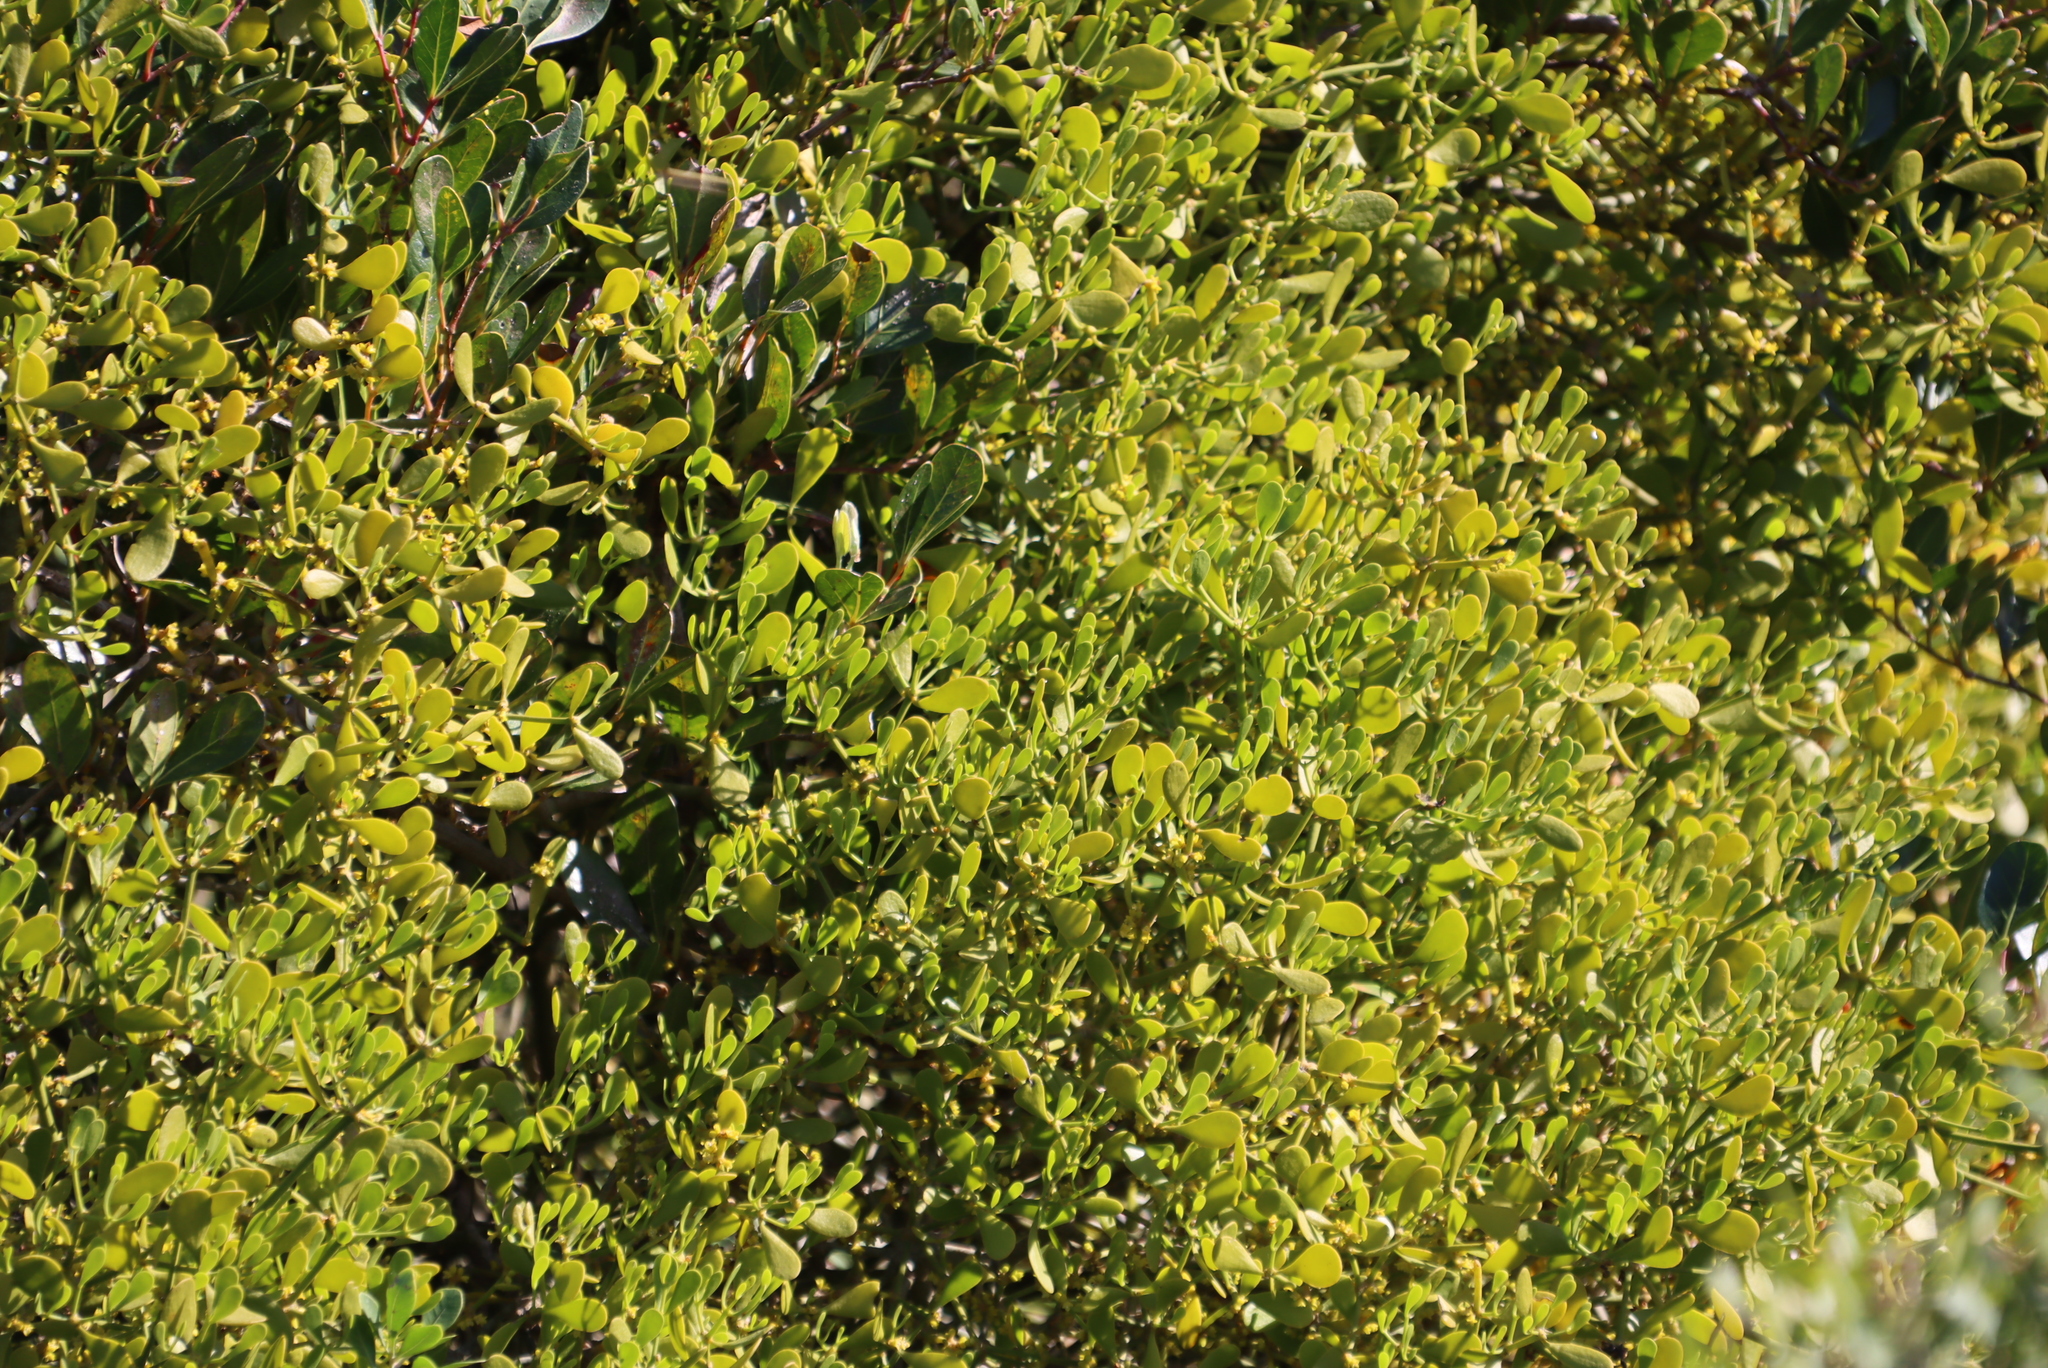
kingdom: Plantae
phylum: Tracheophyta
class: Magnoliopsida
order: Santalales
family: Viscaceae
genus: Viscum
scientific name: Viscum rotundifolium
